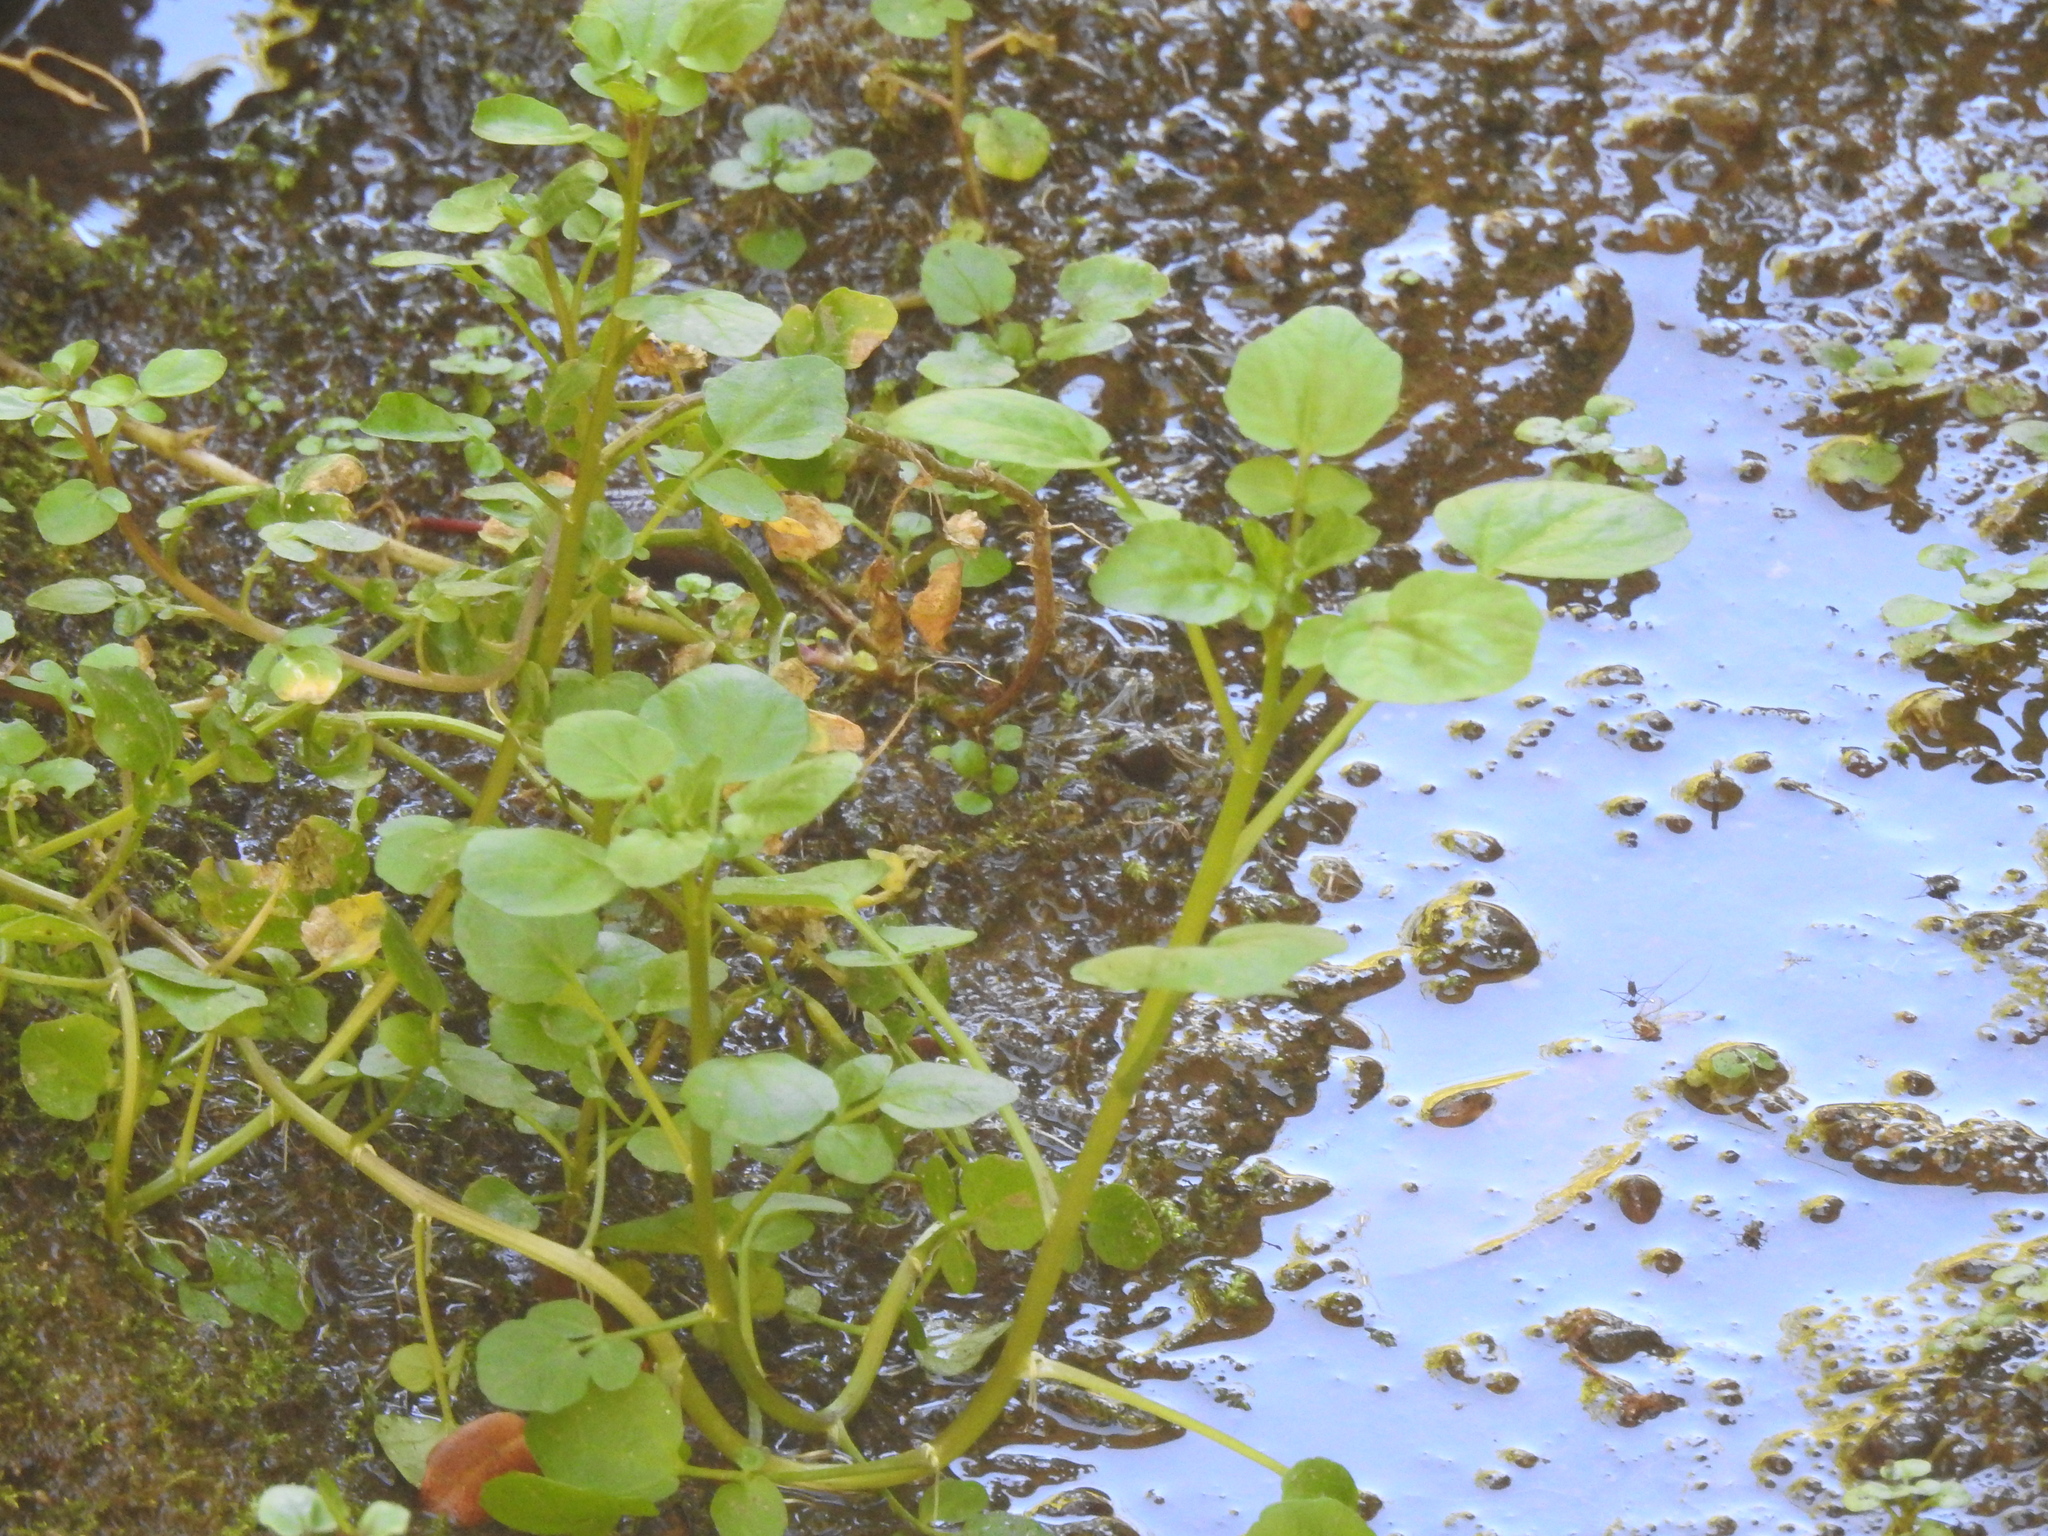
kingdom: Plantae
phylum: Tracheophyta
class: Magnoliopsida
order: Brassicales
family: Brassicaceae
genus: Nasturtium
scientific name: Nasturtium officinale
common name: Watercress
